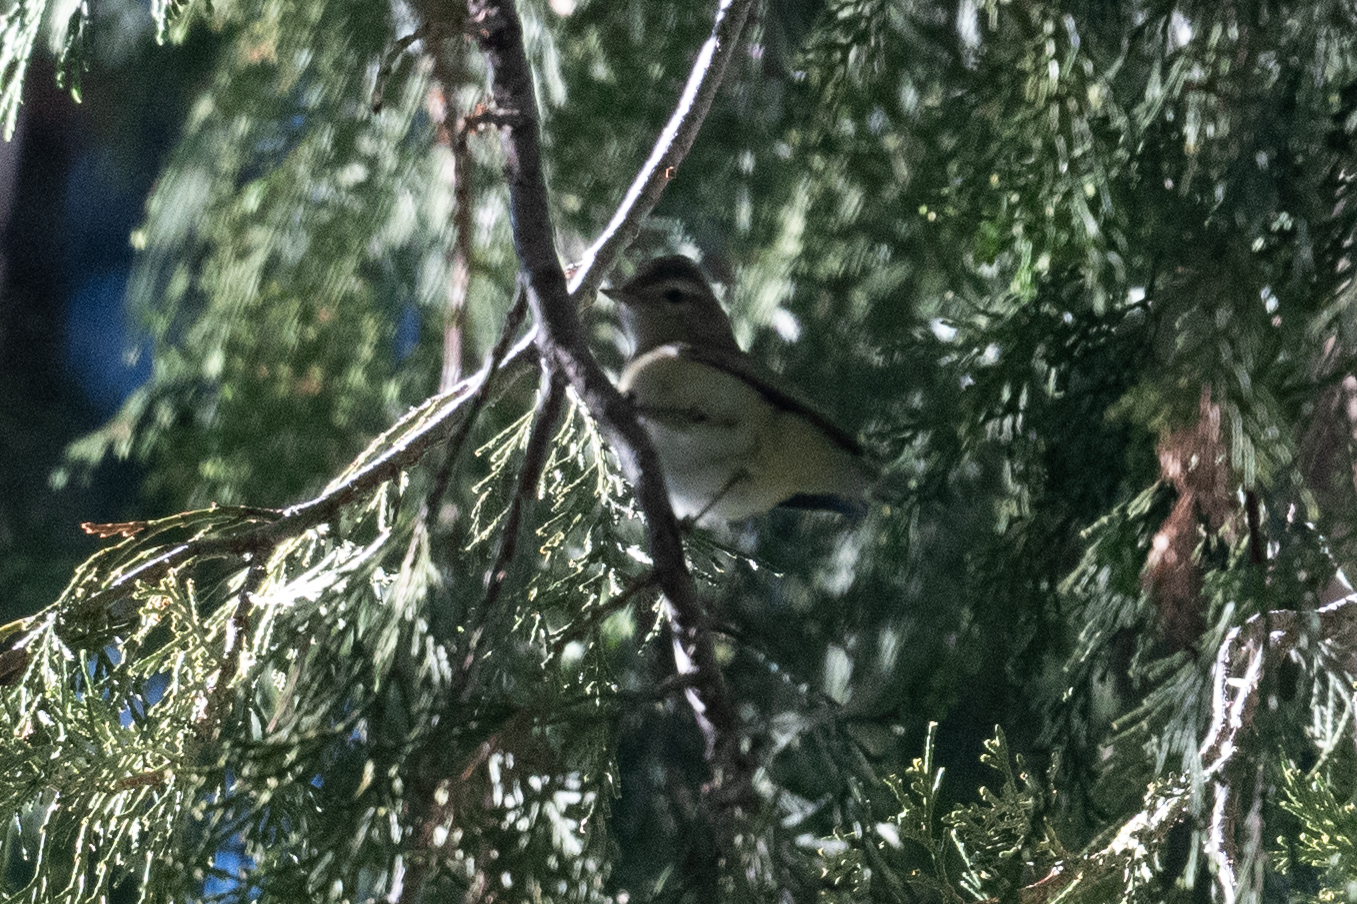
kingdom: Animalia
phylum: Chordata
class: Aves
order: Passeriformes
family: Vireonidae
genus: Vireo
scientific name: Vireo gilvus
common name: Warbling vireo
